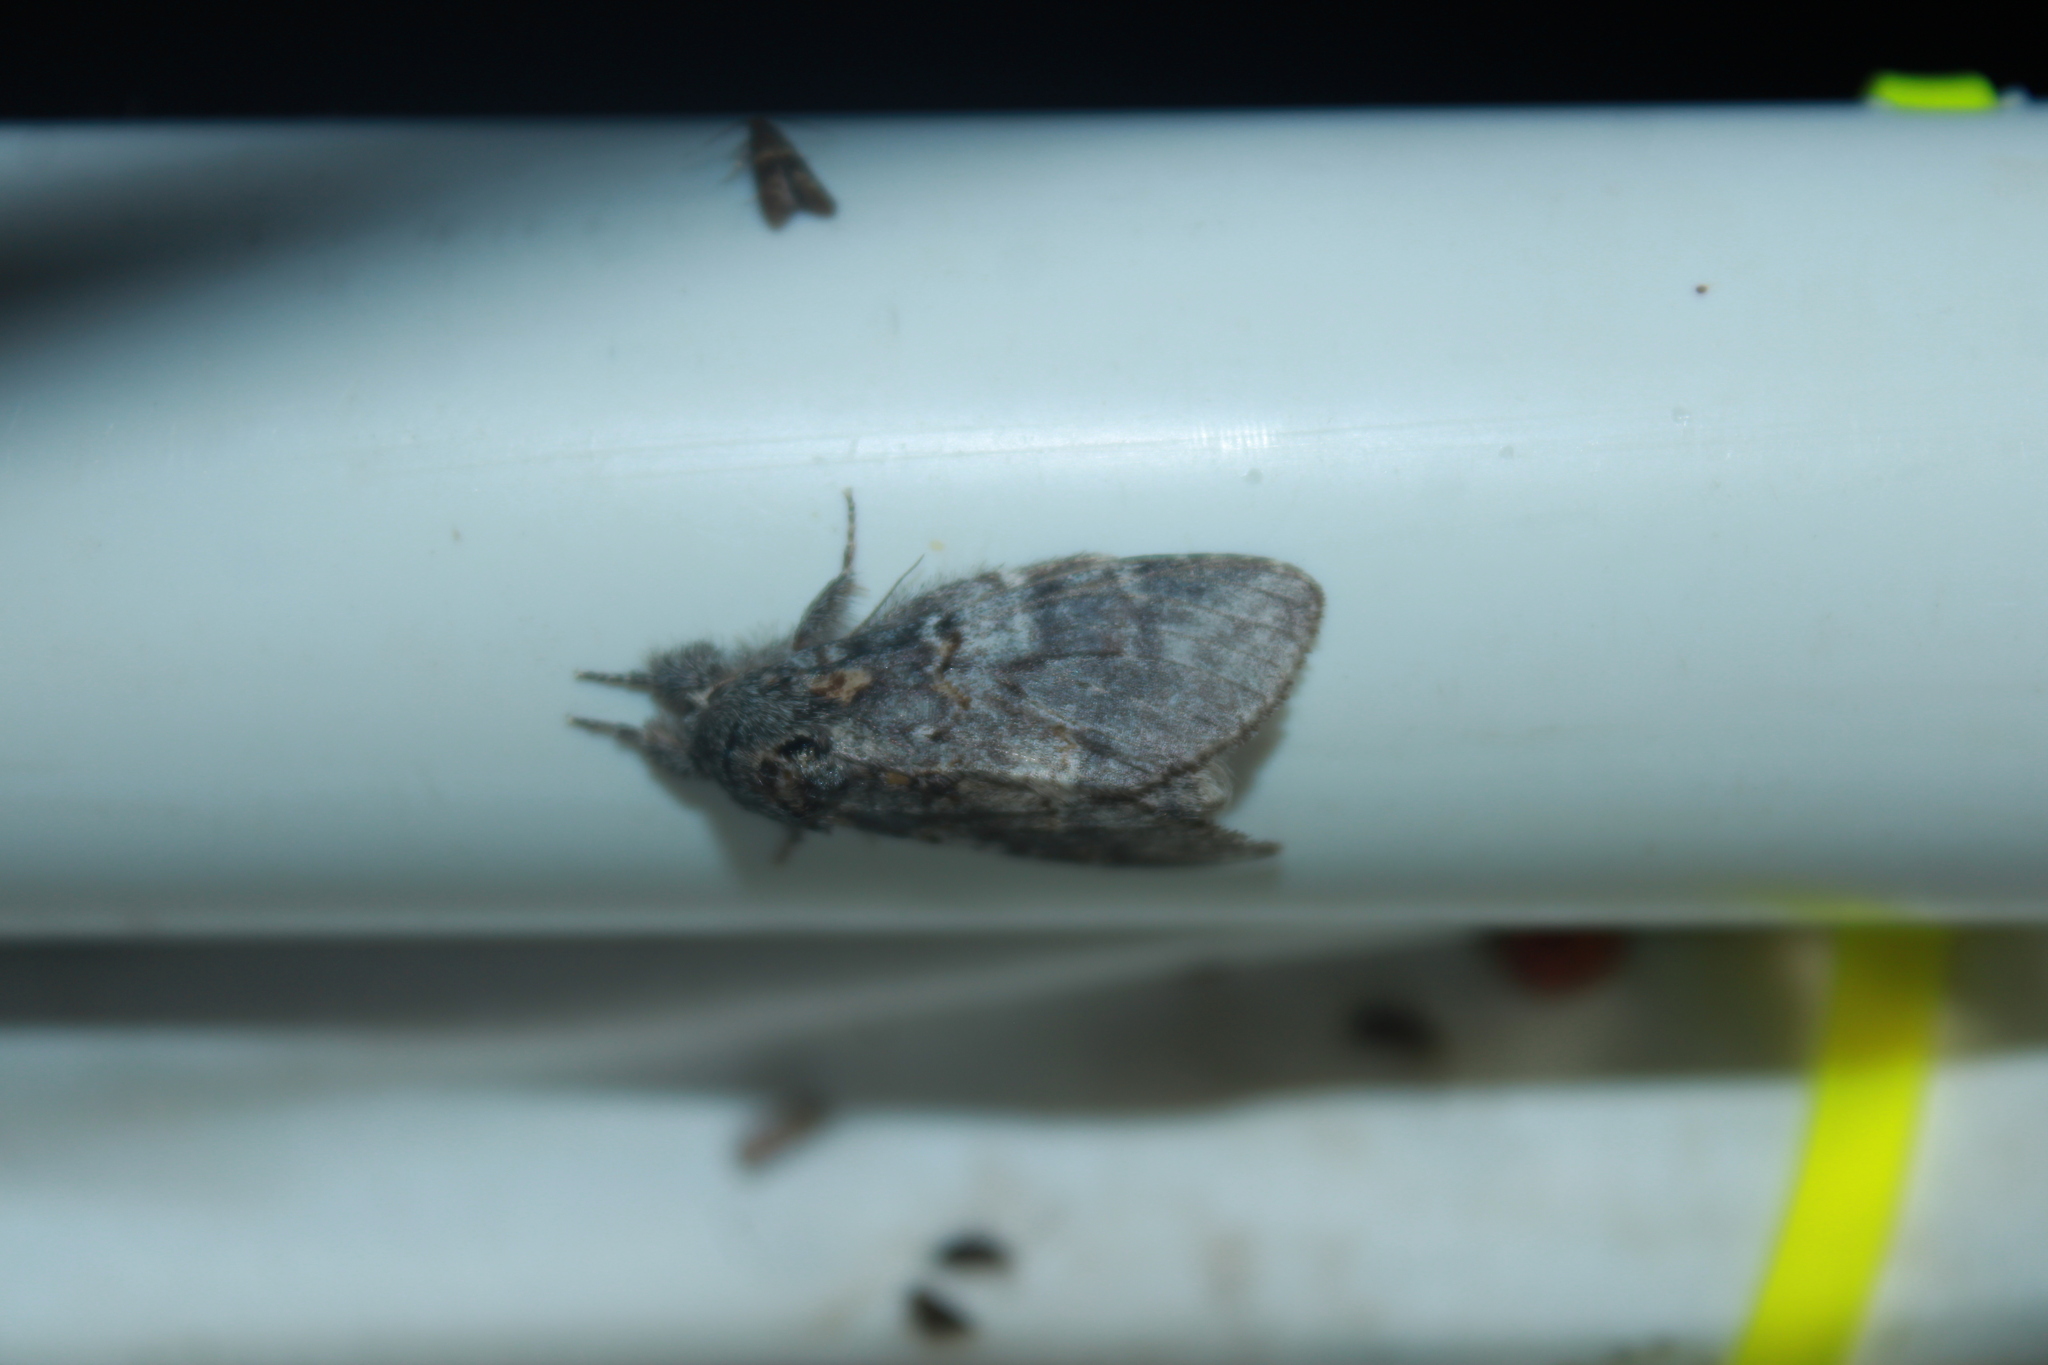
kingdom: Animalia
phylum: Arthropoda
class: Insecta
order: Lepidoptera
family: Notodontidae
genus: Peridea
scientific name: Peridea angulosa
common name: Angulose prominent
